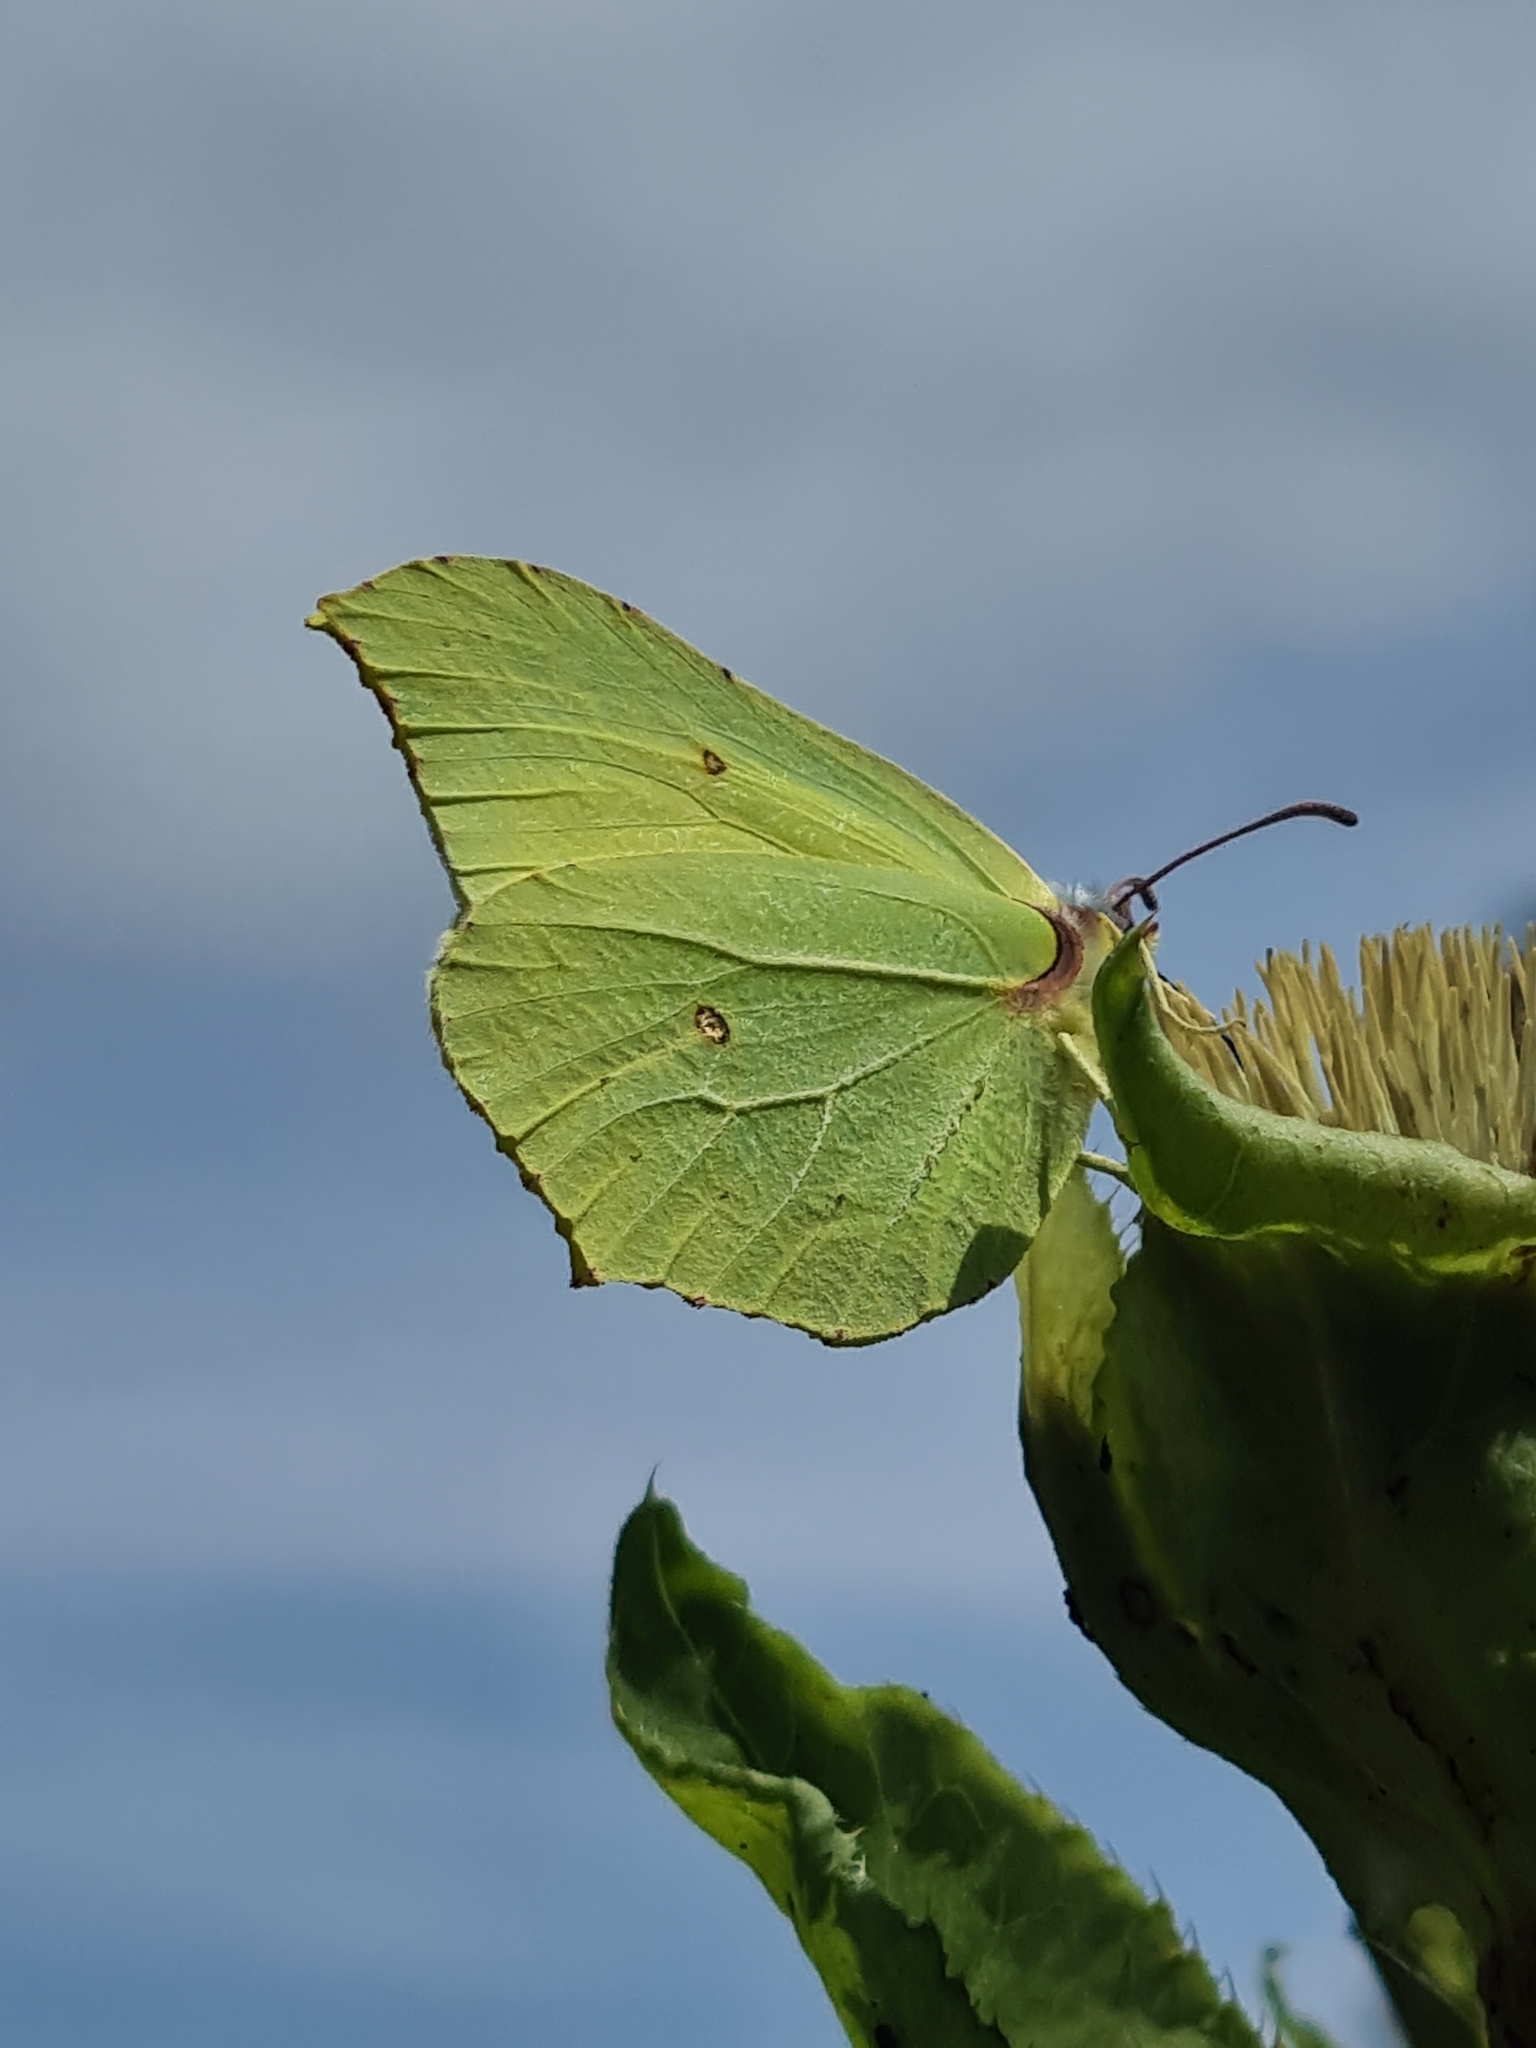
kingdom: Animalia
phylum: Arthropoda
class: Insecta
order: Lepidoptera
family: Pieridae
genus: Gonepteryx
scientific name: Gonepteryx rhamni
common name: Brimstone
